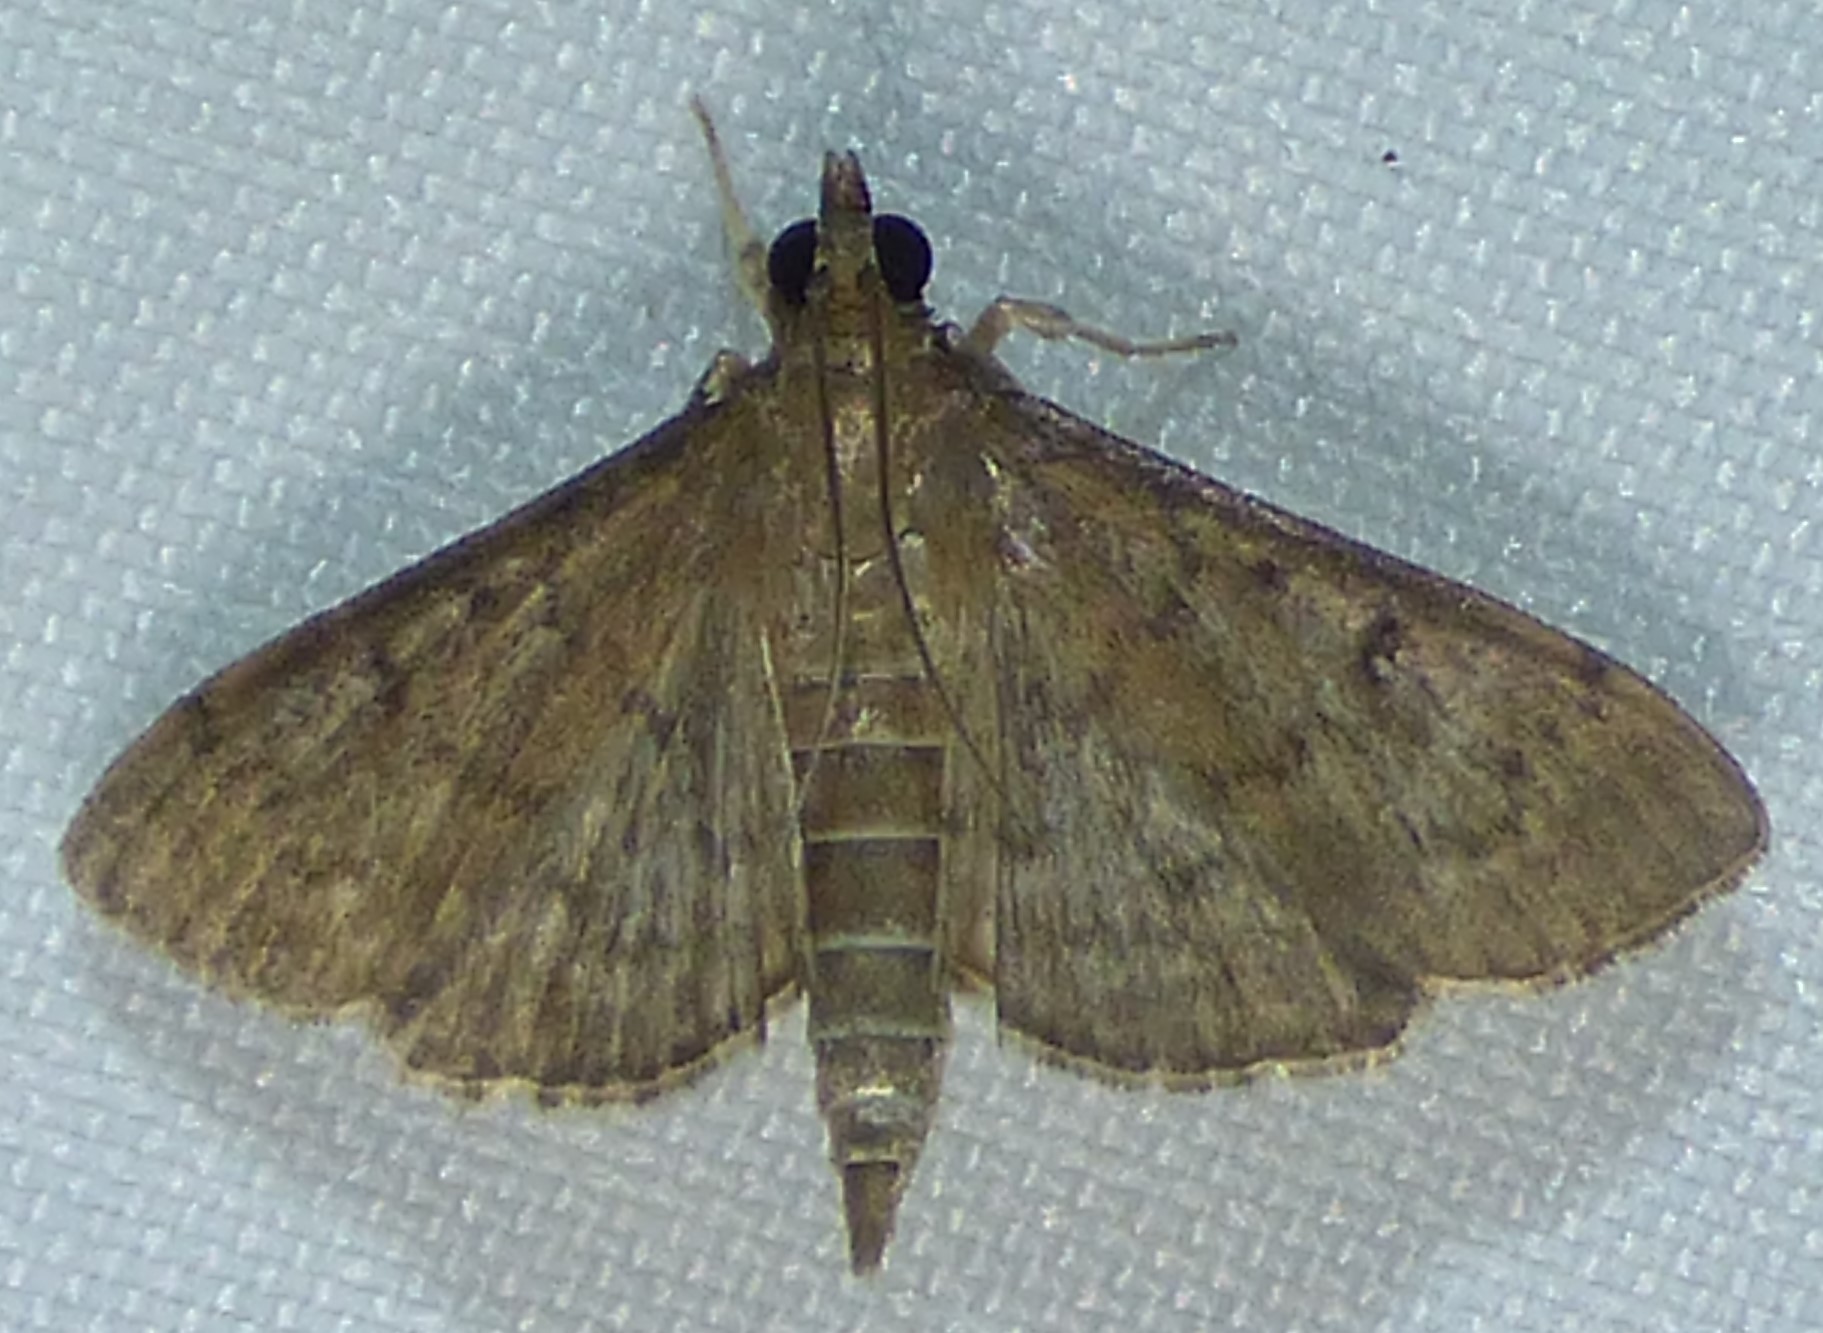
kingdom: Animalia
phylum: Arthropoda
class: Insecta
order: Lepidoptera
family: Crambidae
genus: Herpetogramma
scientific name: Herpetogramma phaeopteralis
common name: Dusky herpetogramma moth
